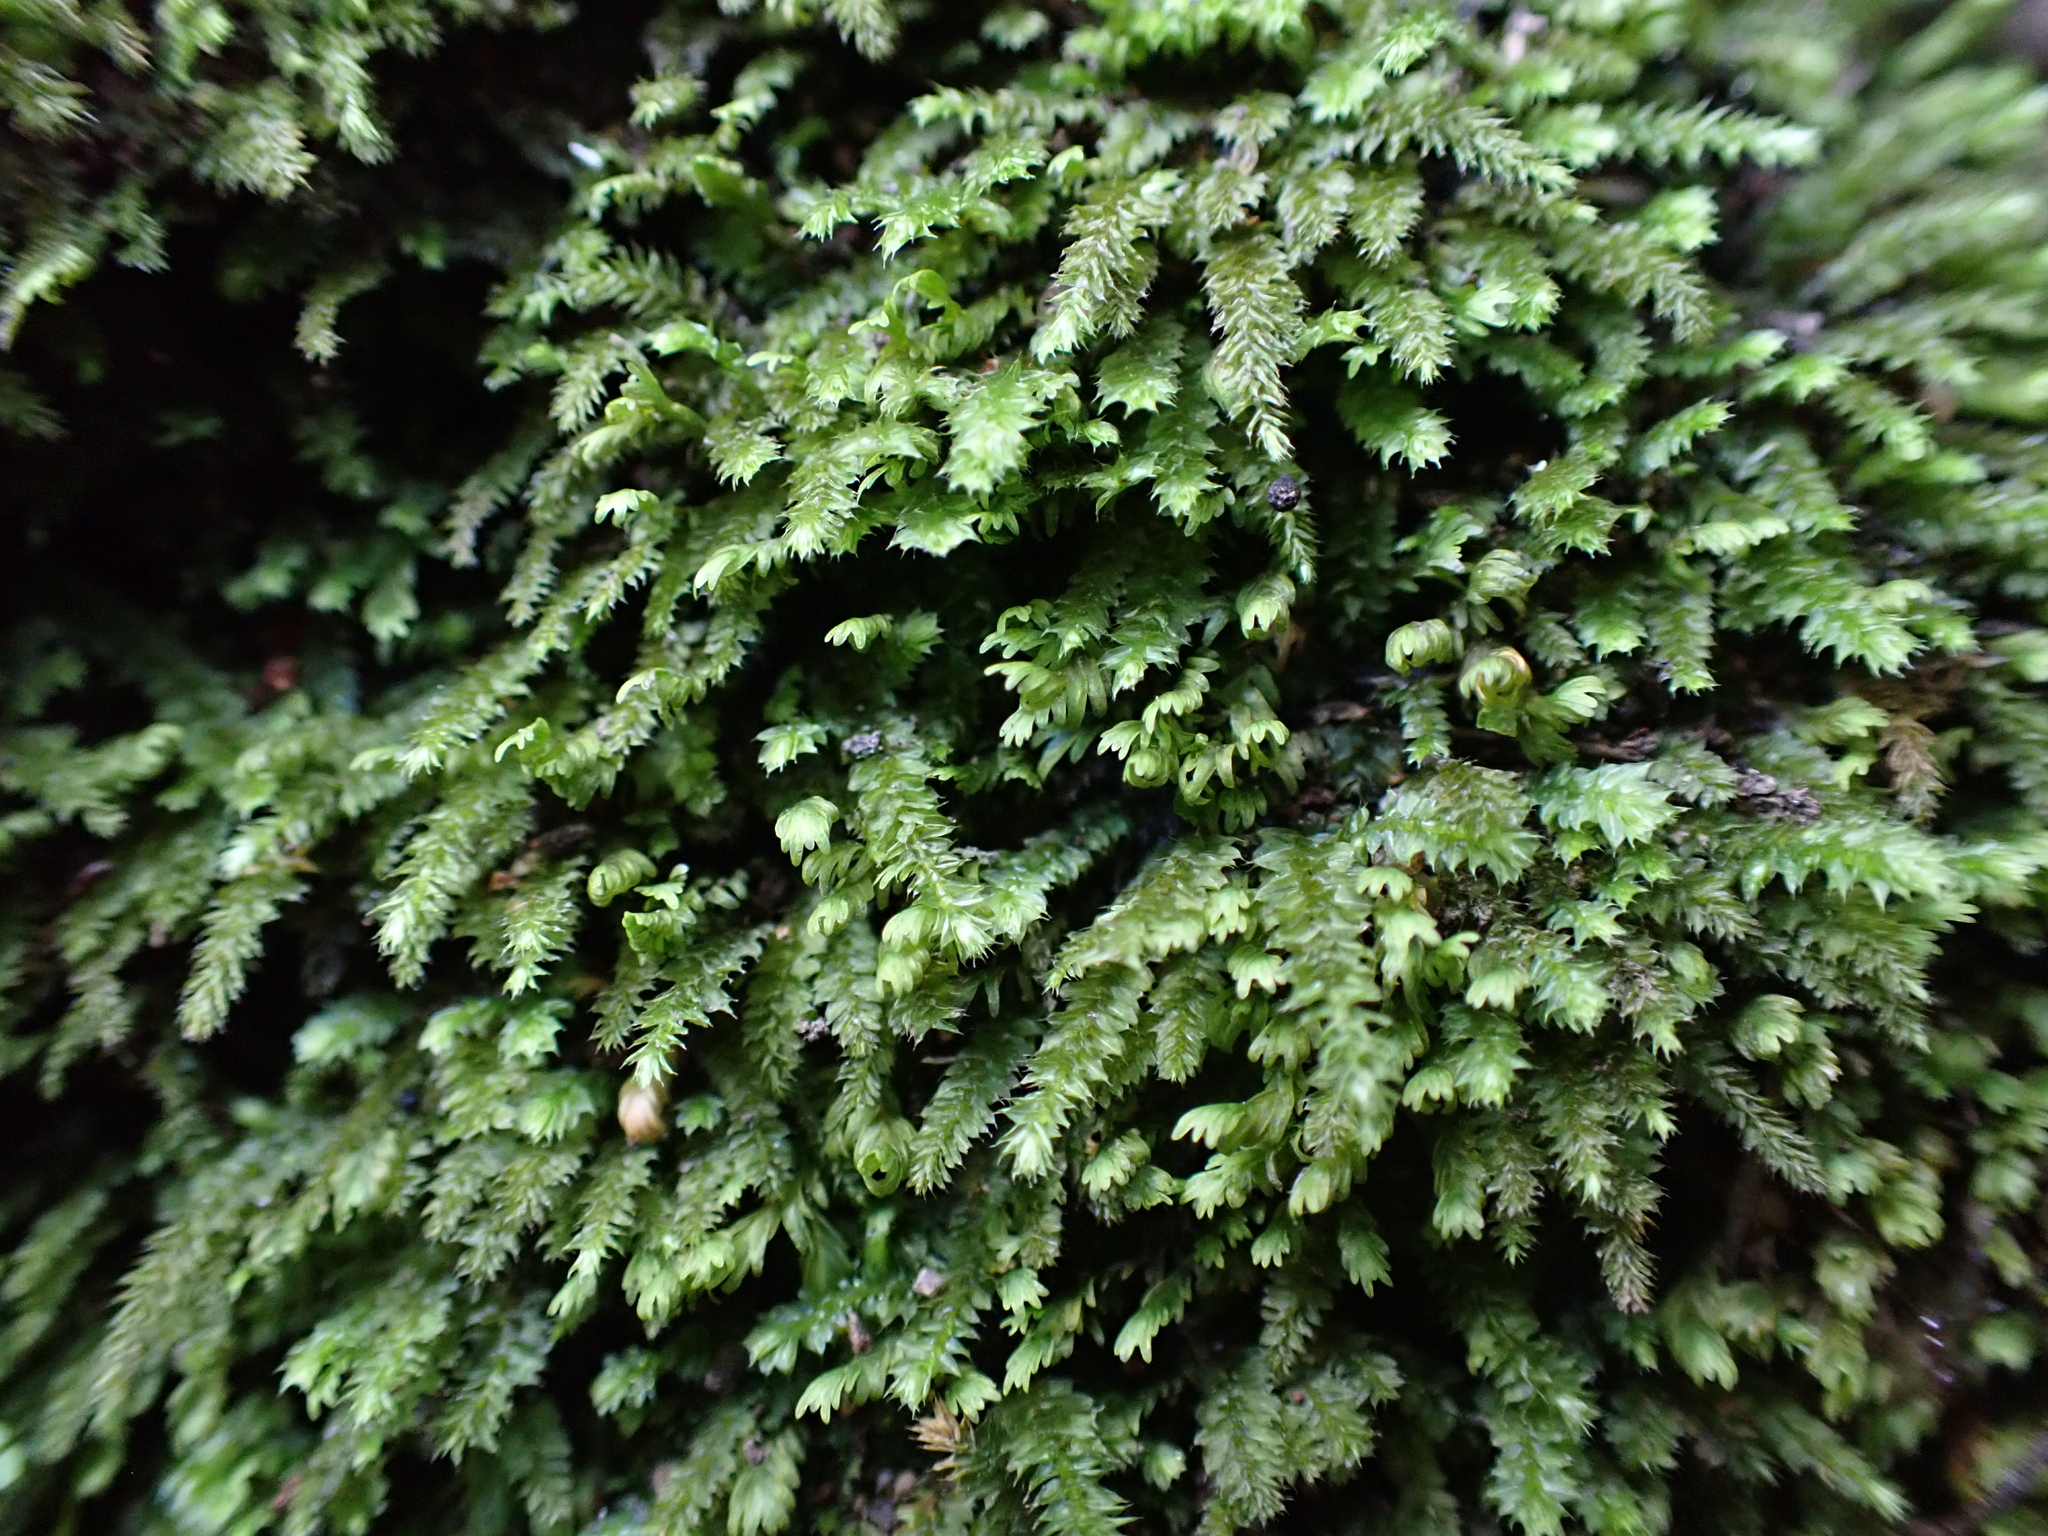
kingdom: Plantae
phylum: Bryophyta
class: Bryopsida
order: Hypnodendrales
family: Racopilaceae
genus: Racopilum
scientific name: Racopilum cuspidigerum
